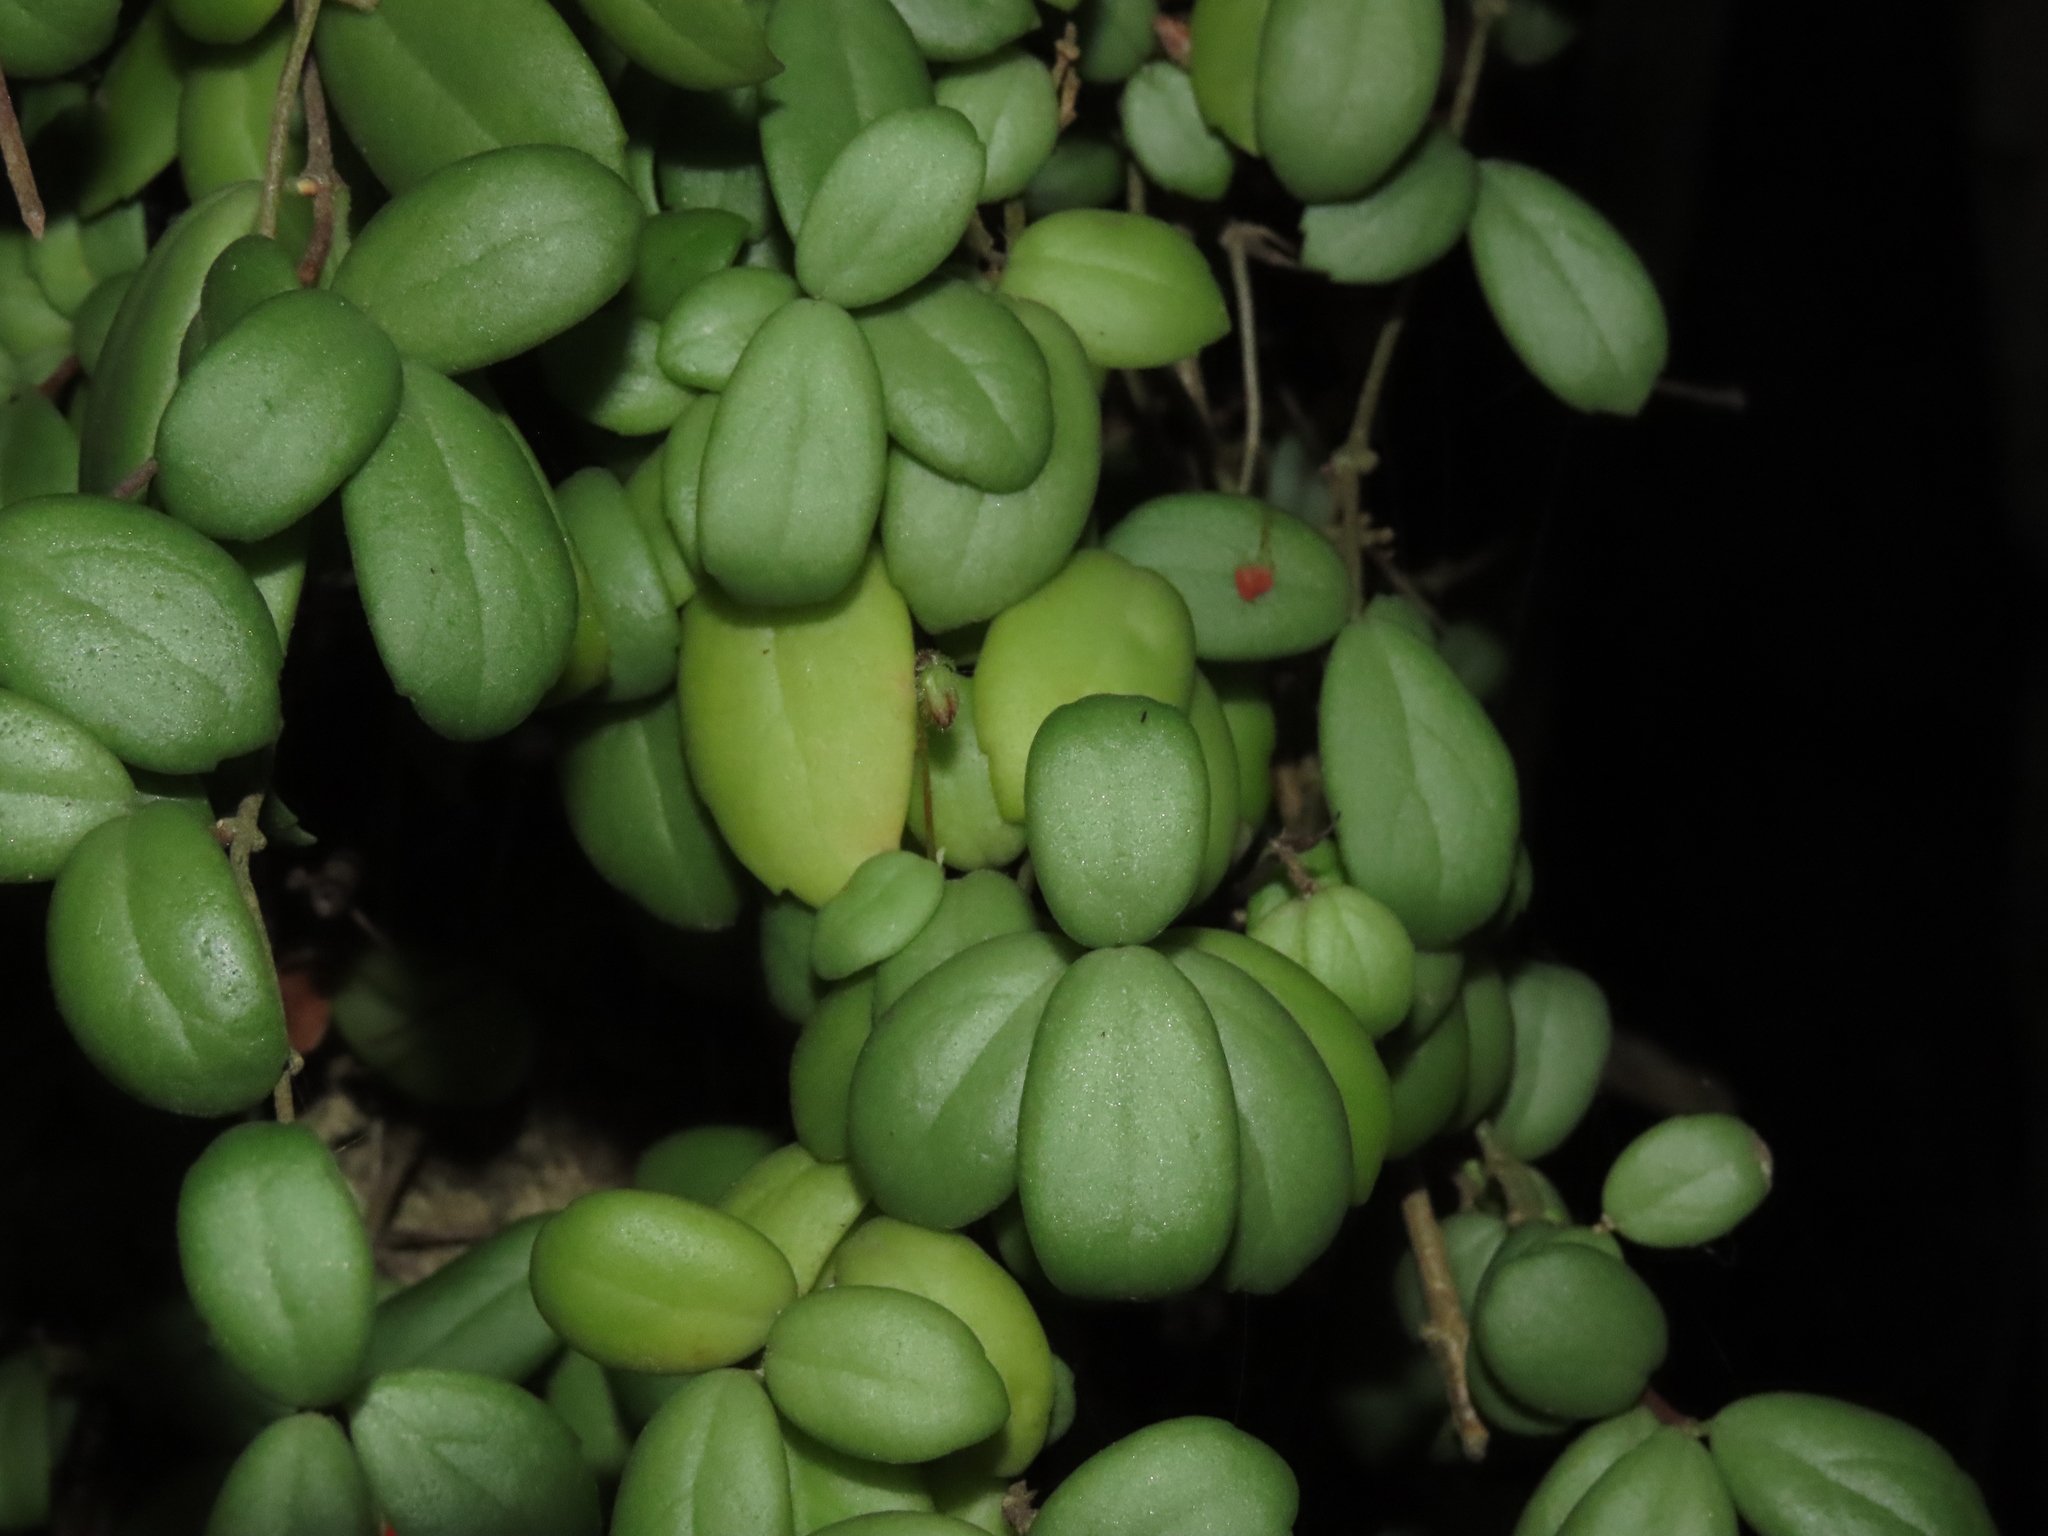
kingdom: Plantae
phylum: Tracheophyta
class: Magnoliopsida
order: Lamiales
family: Gesneriaceae
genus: Sarmienta
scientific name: Sarmienta scandens
